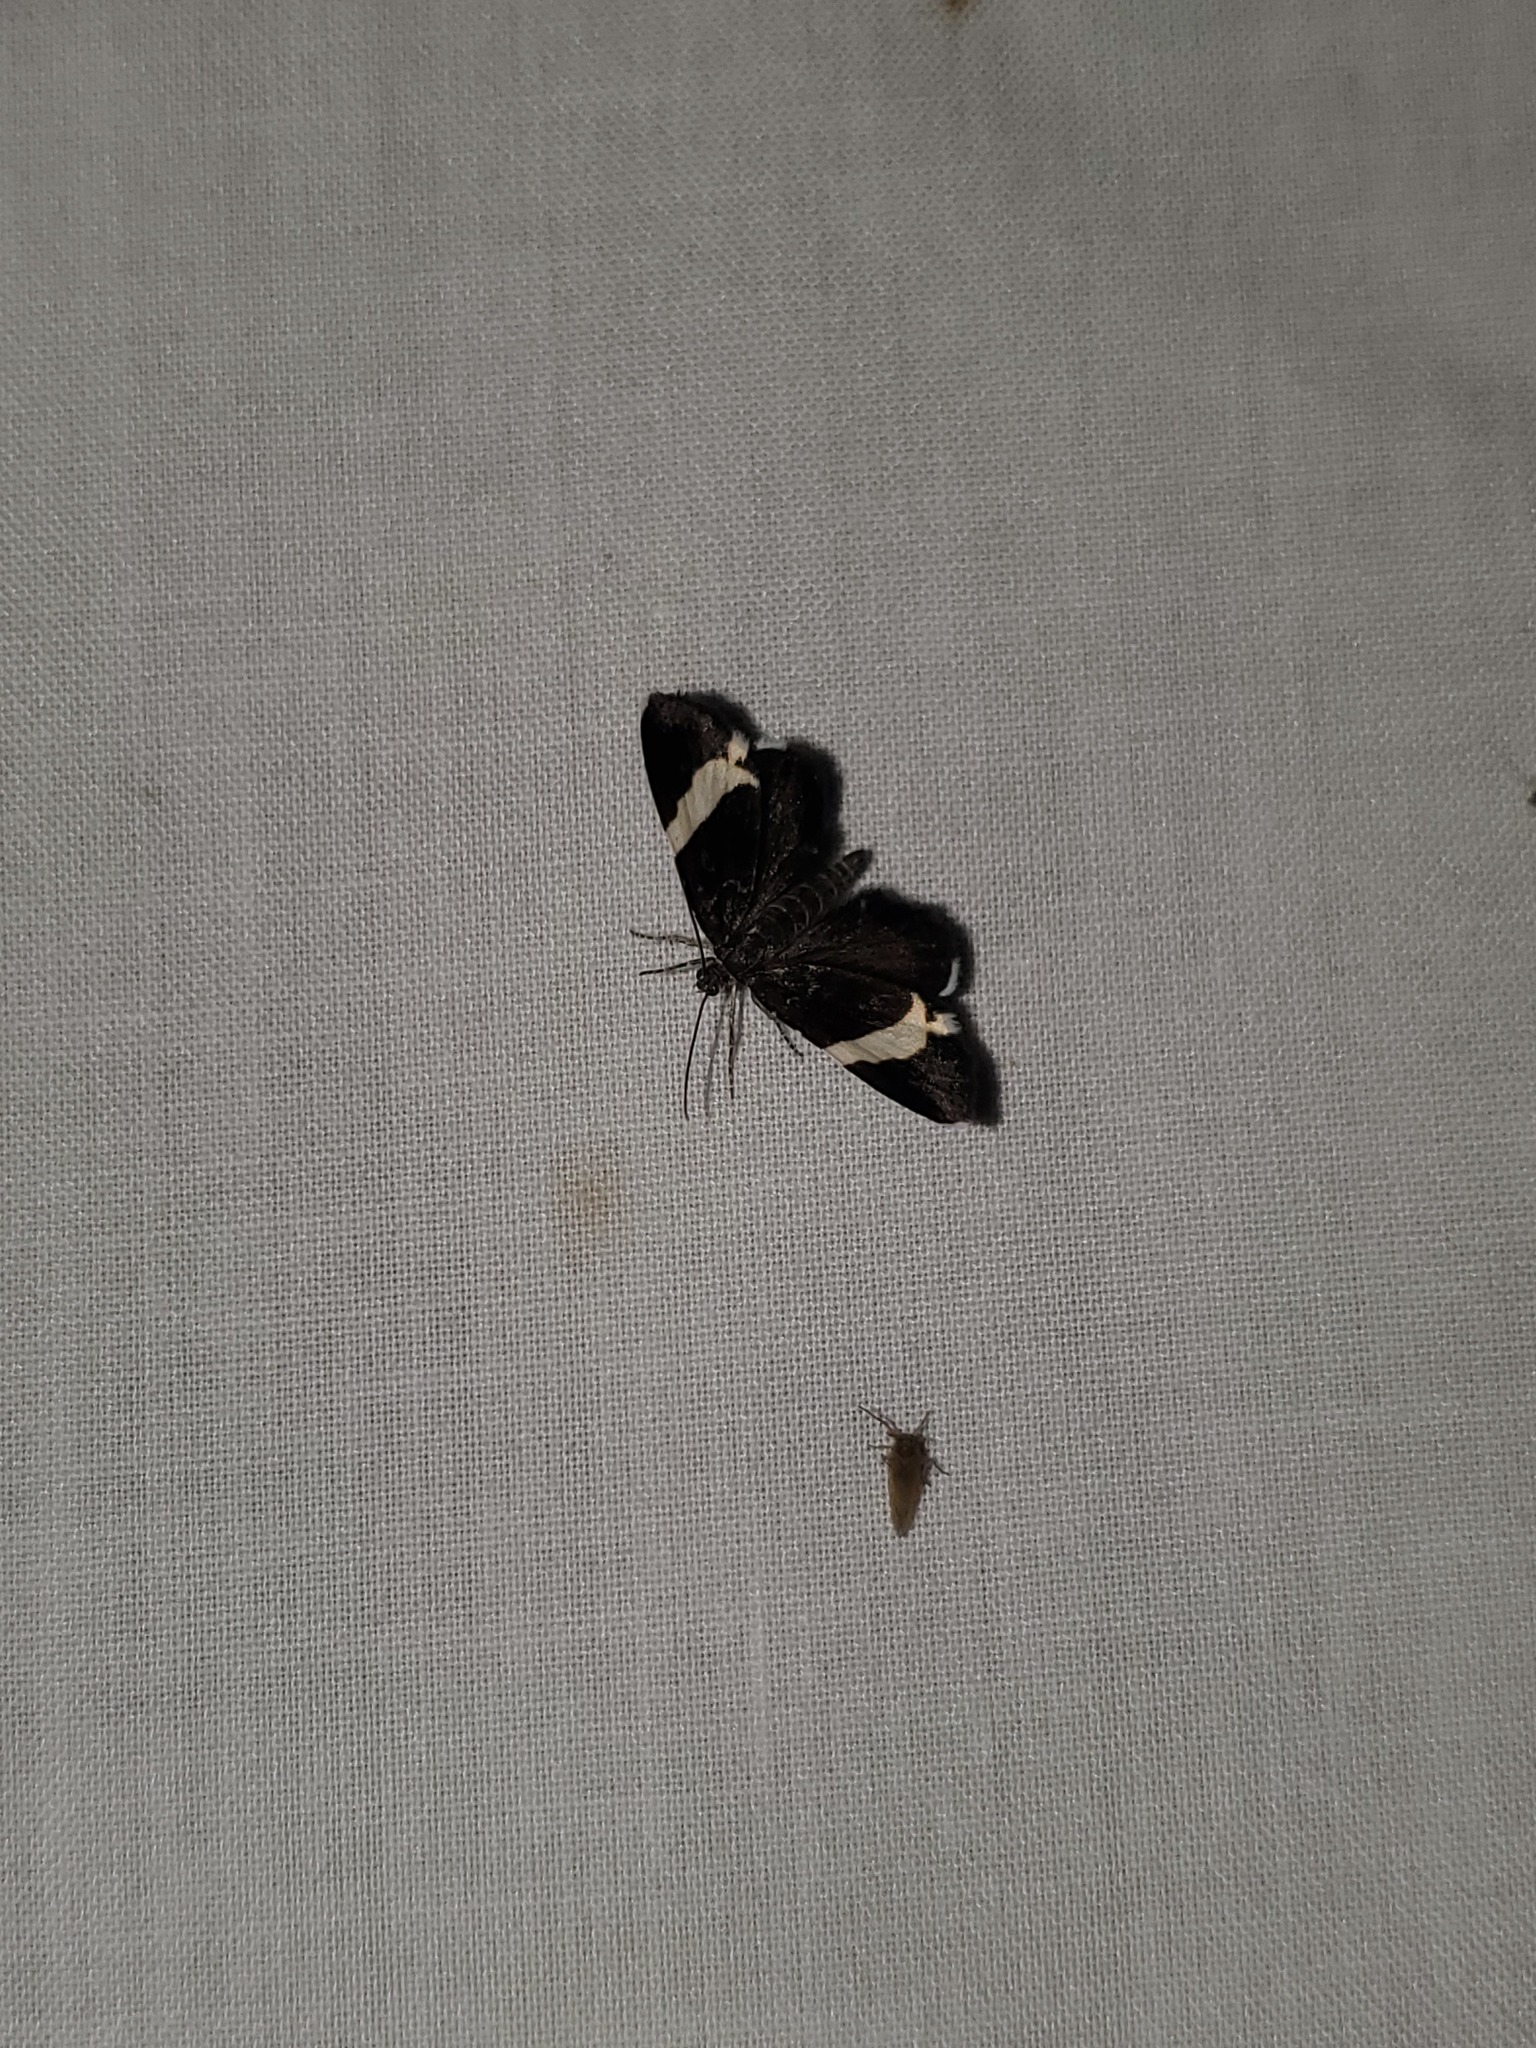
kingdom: Animalia
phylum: Arthropoda
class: Insecta
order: Lepidoptera
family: Geometridae
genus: Trichodezia
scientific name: Trichodezia albovittata
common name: White striped black
